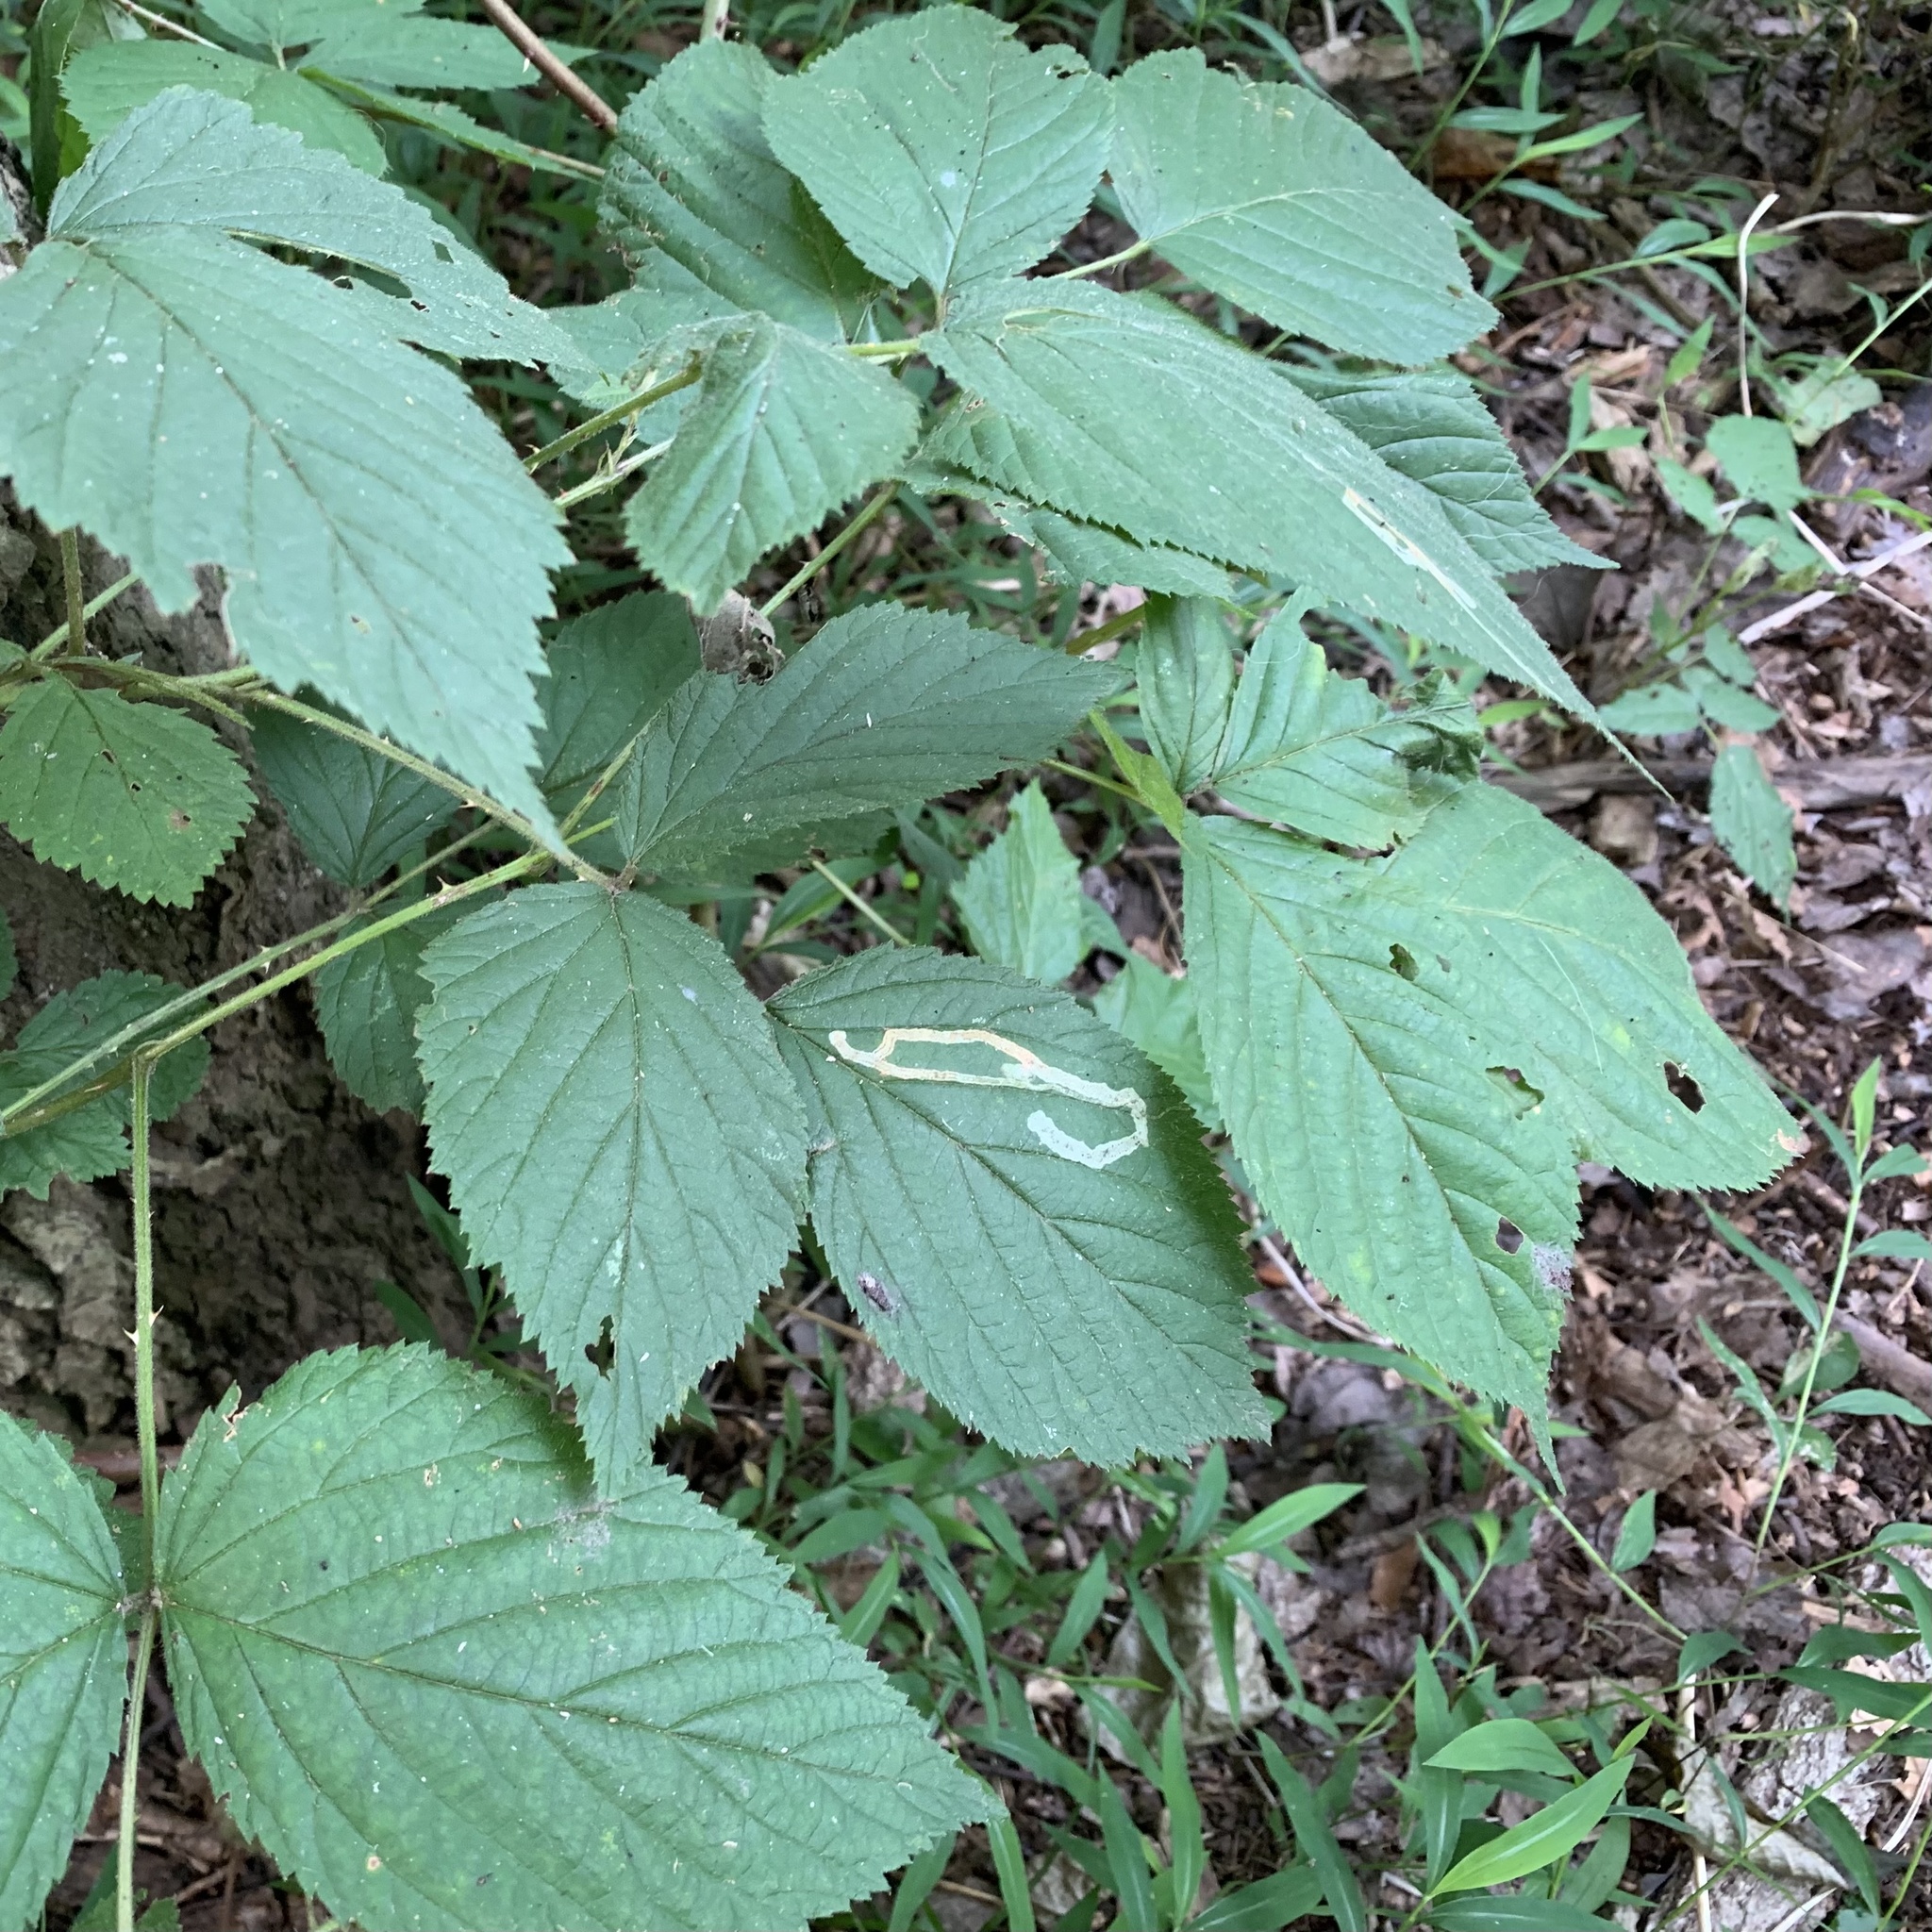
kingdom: Animalia
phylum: Arthropoda
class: Insecta
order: Diptera
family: Agromyzidae
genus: Agromyza
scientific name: Agromyza vockerothi
